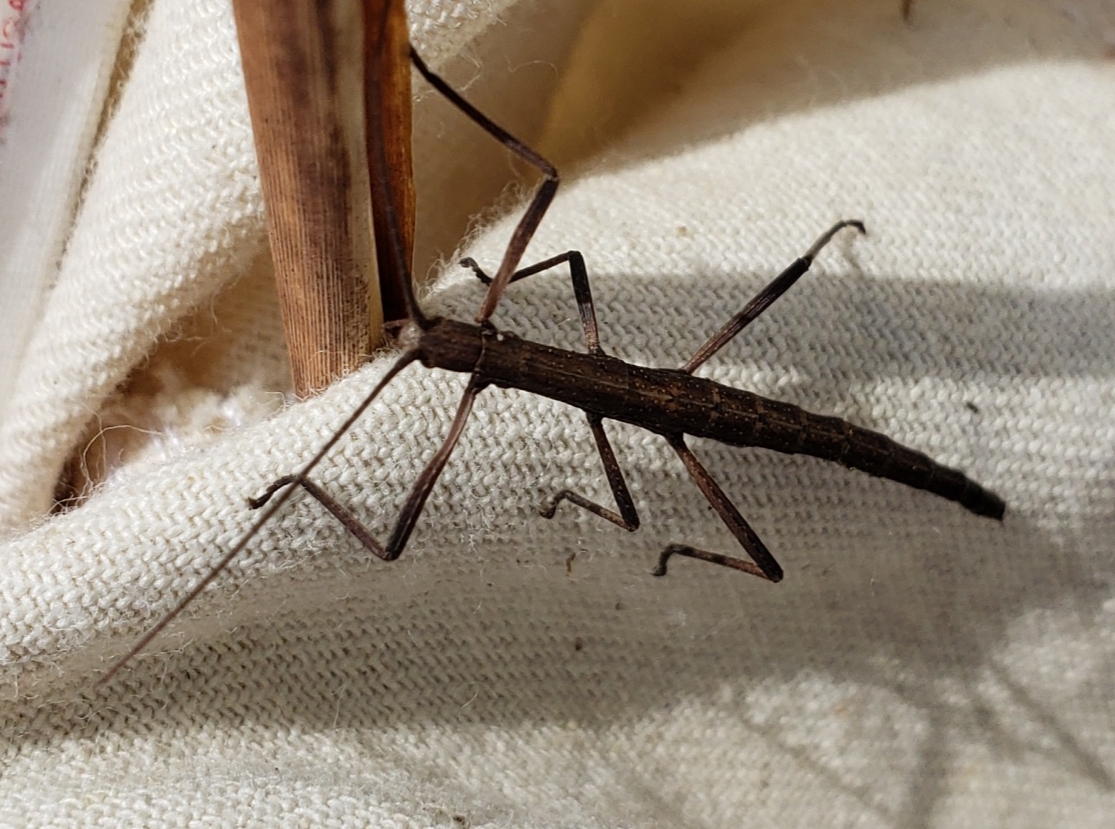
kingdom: Animalia
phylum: Arthropoda
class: Insecta
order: Phasmida
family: Pseudophasmatidae
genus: Anisomorpha
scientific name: Anisomorpha buprestoides
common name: Florida stick insect
